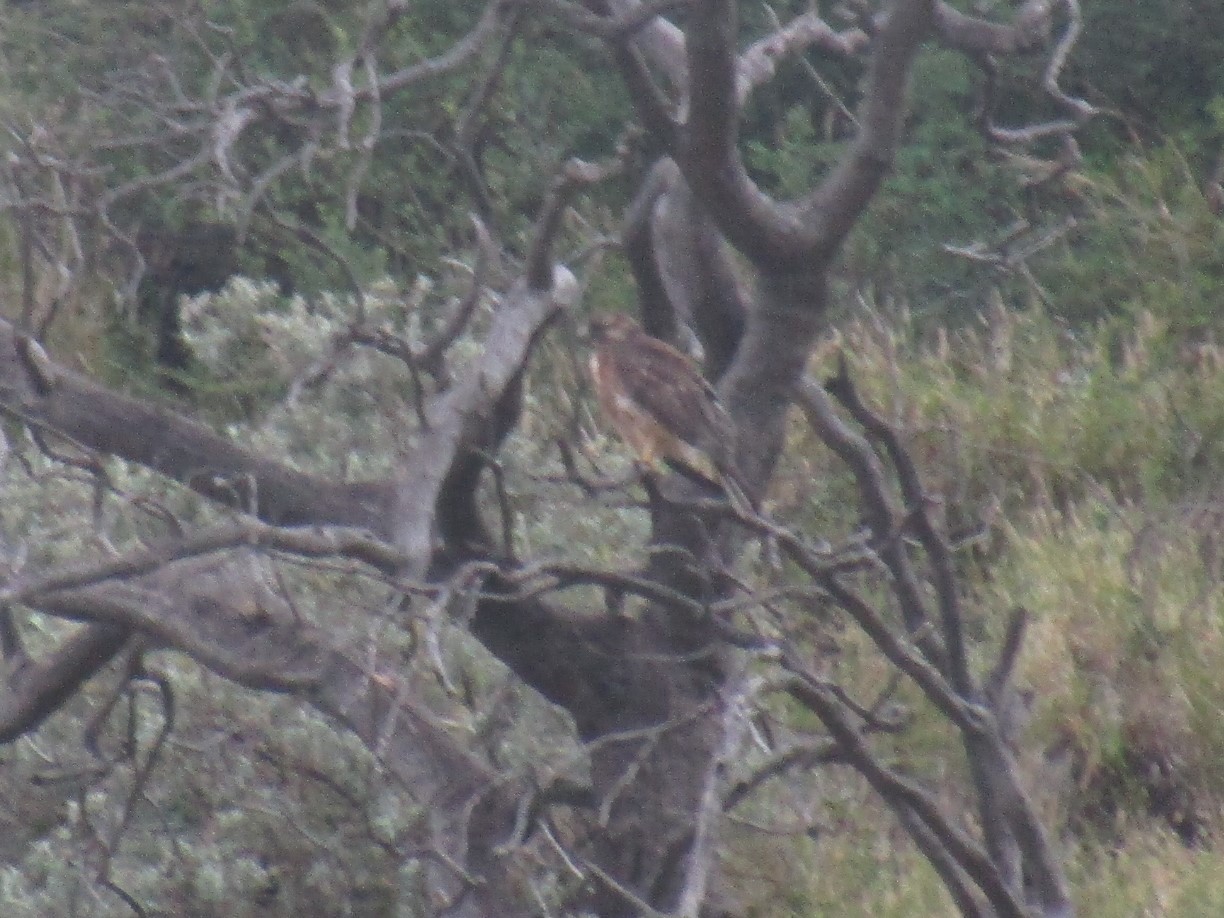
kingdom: Animalia
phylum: Chordata
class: Aves
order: Accipitriformes
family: Accipitridae
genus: Buteo
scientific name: Buteo polyosoma
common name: Variable hawk
